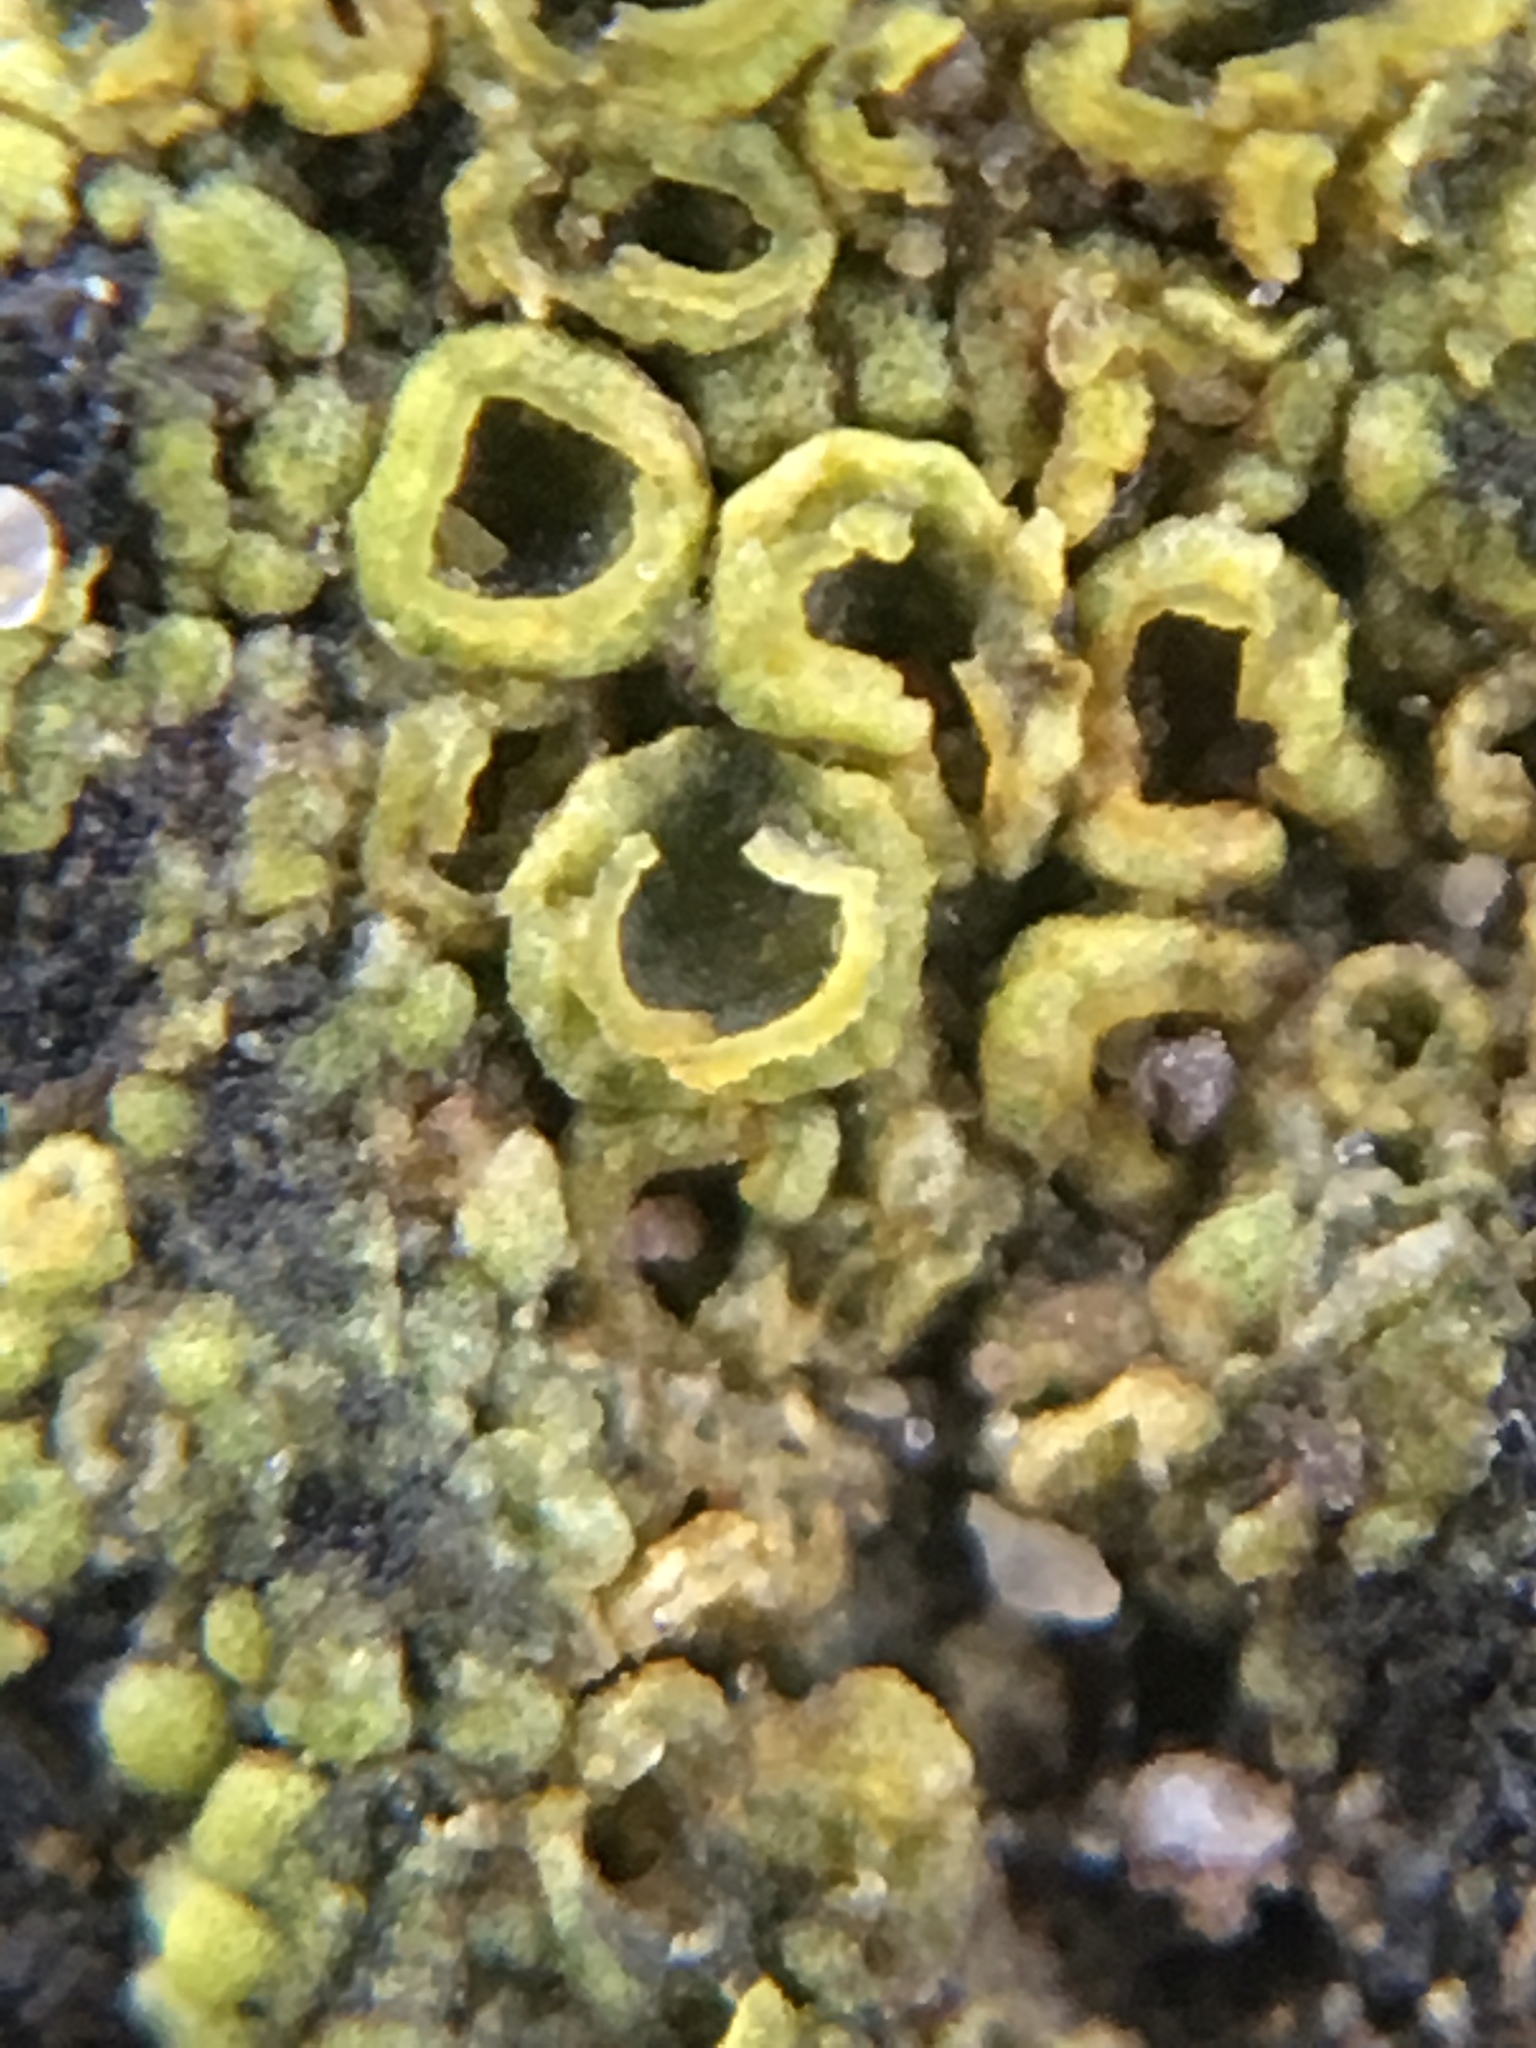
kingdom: Fungi
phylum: Ascomycota
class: Candelariomycetes
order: Candelariales
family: Candelariaceae
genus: Candelariella
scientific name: Candelariella vitellina
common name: Common goldspeck
